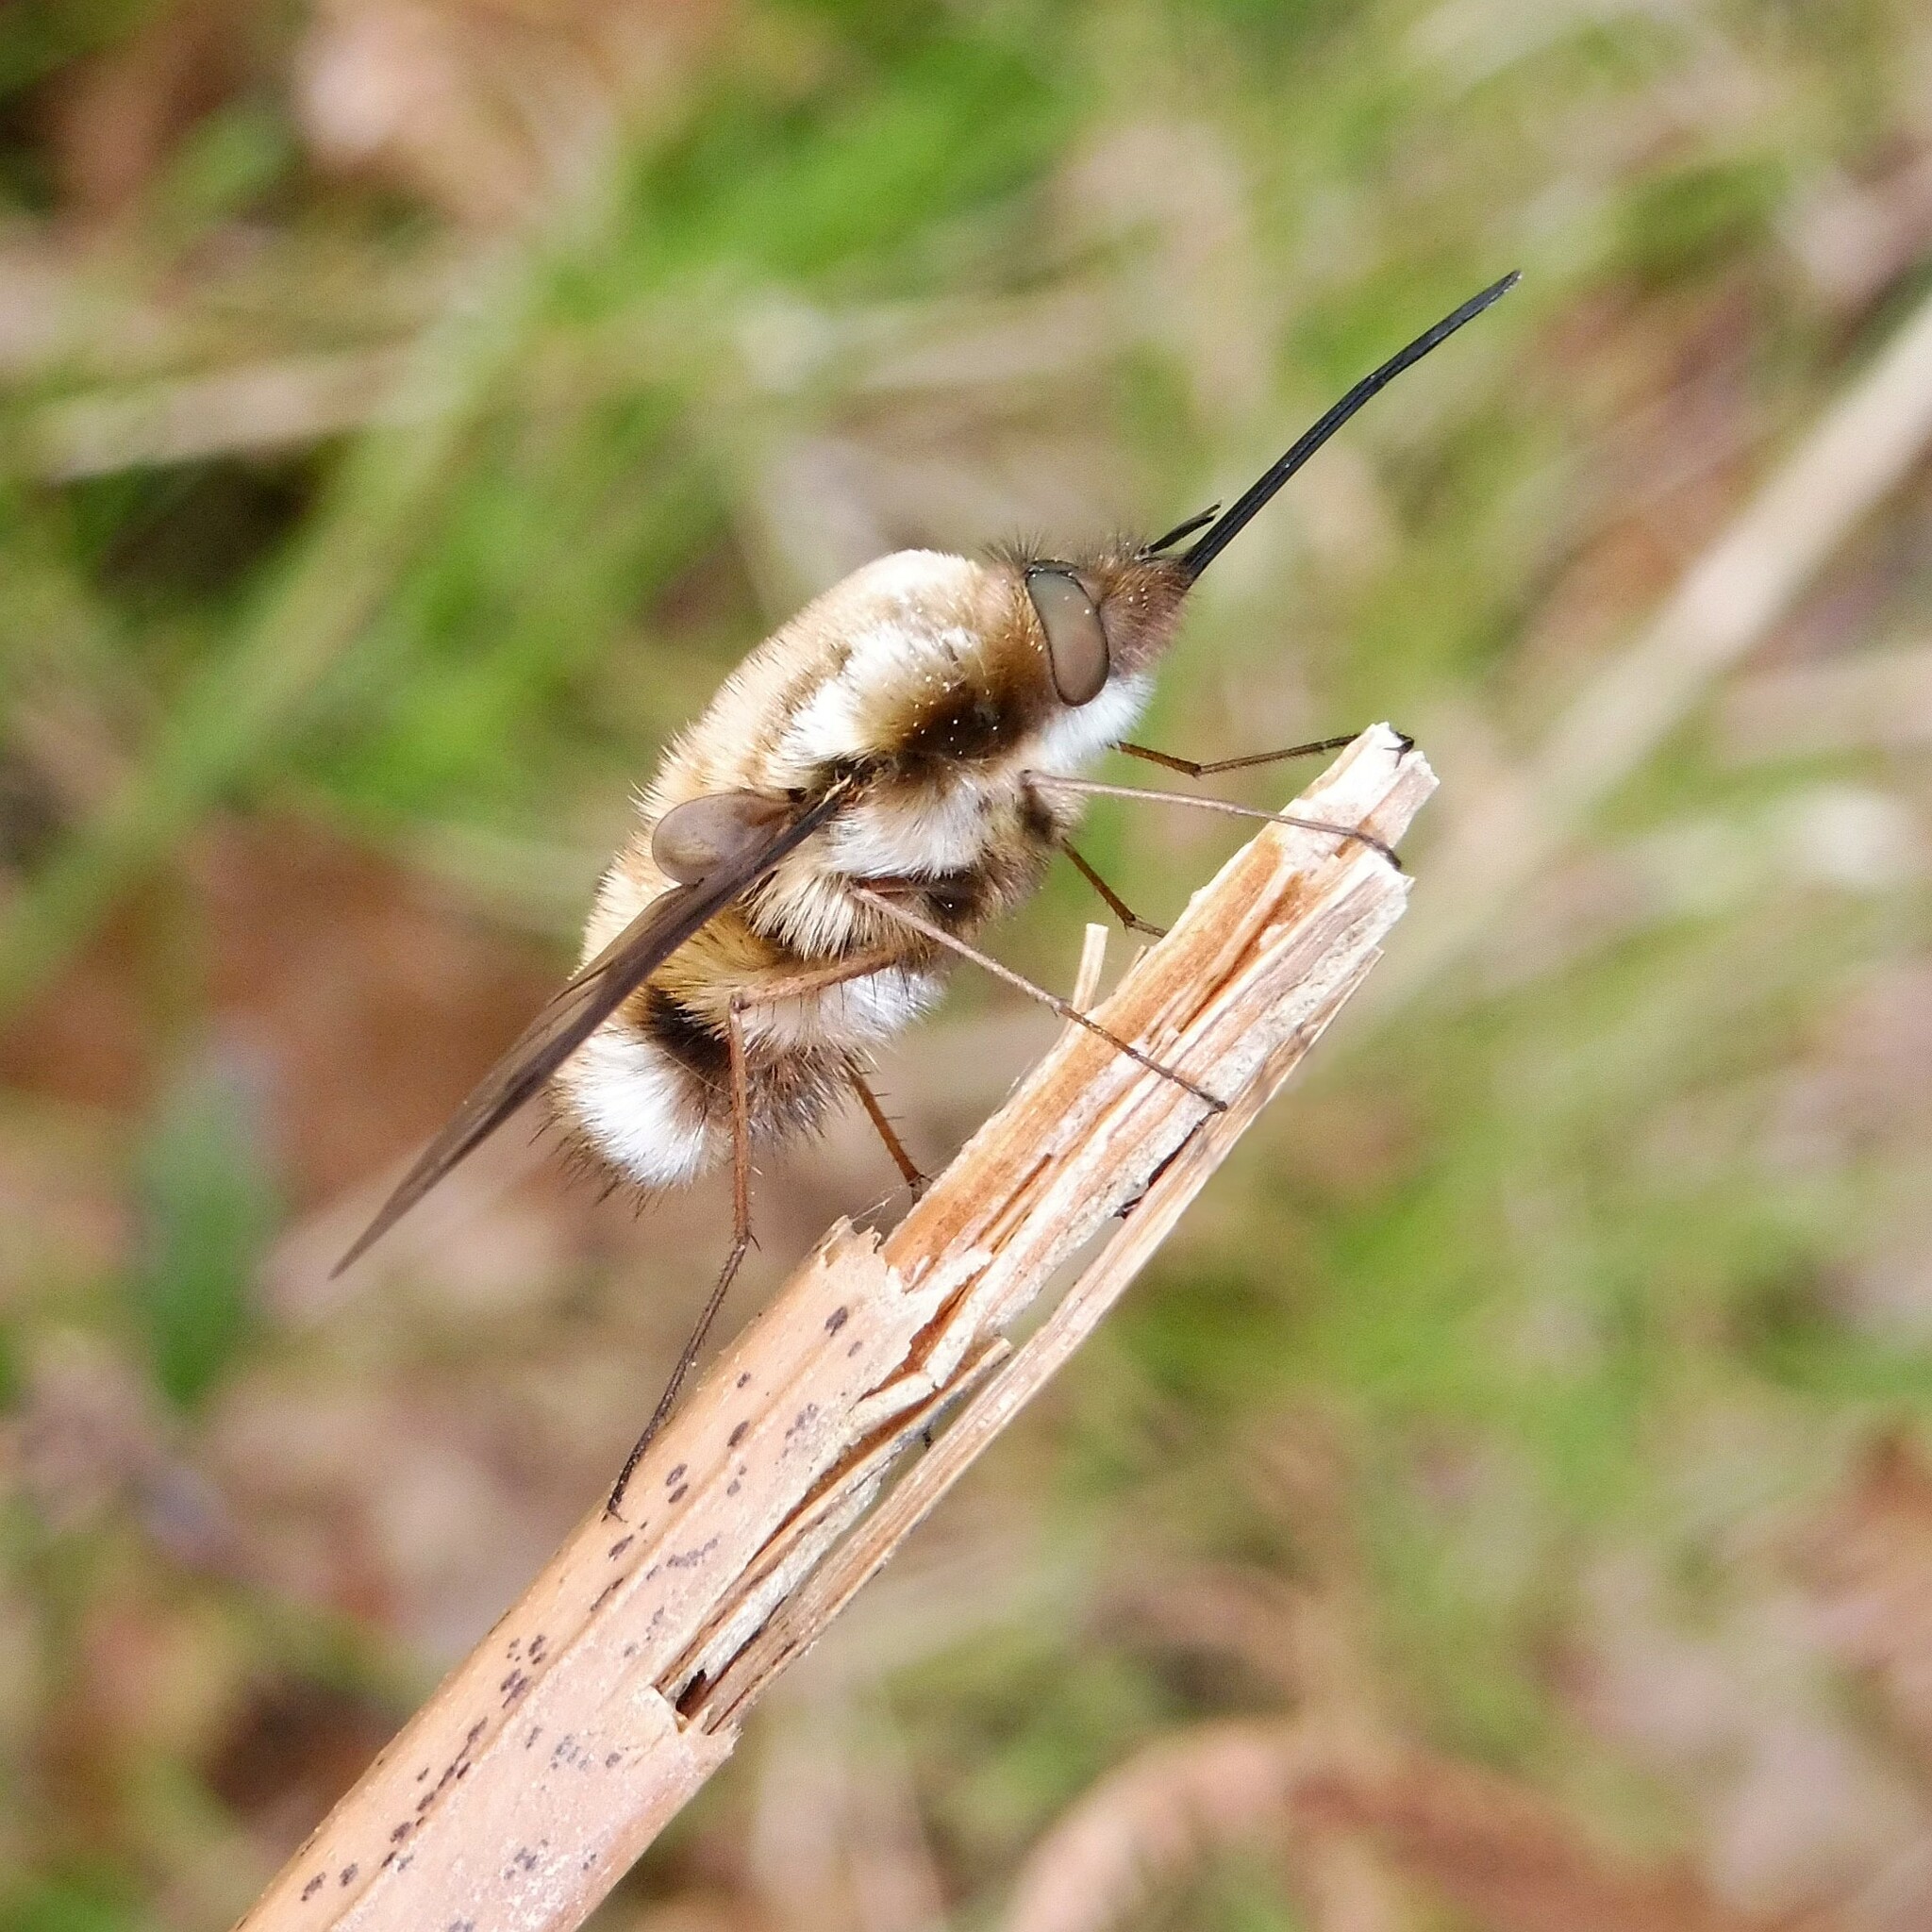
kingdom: Animalia
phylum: Arthropoda
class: Insecta
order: Diptera
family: Bombyliidae
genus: Bombylius
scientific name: Bombylius major
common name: Bee fly
